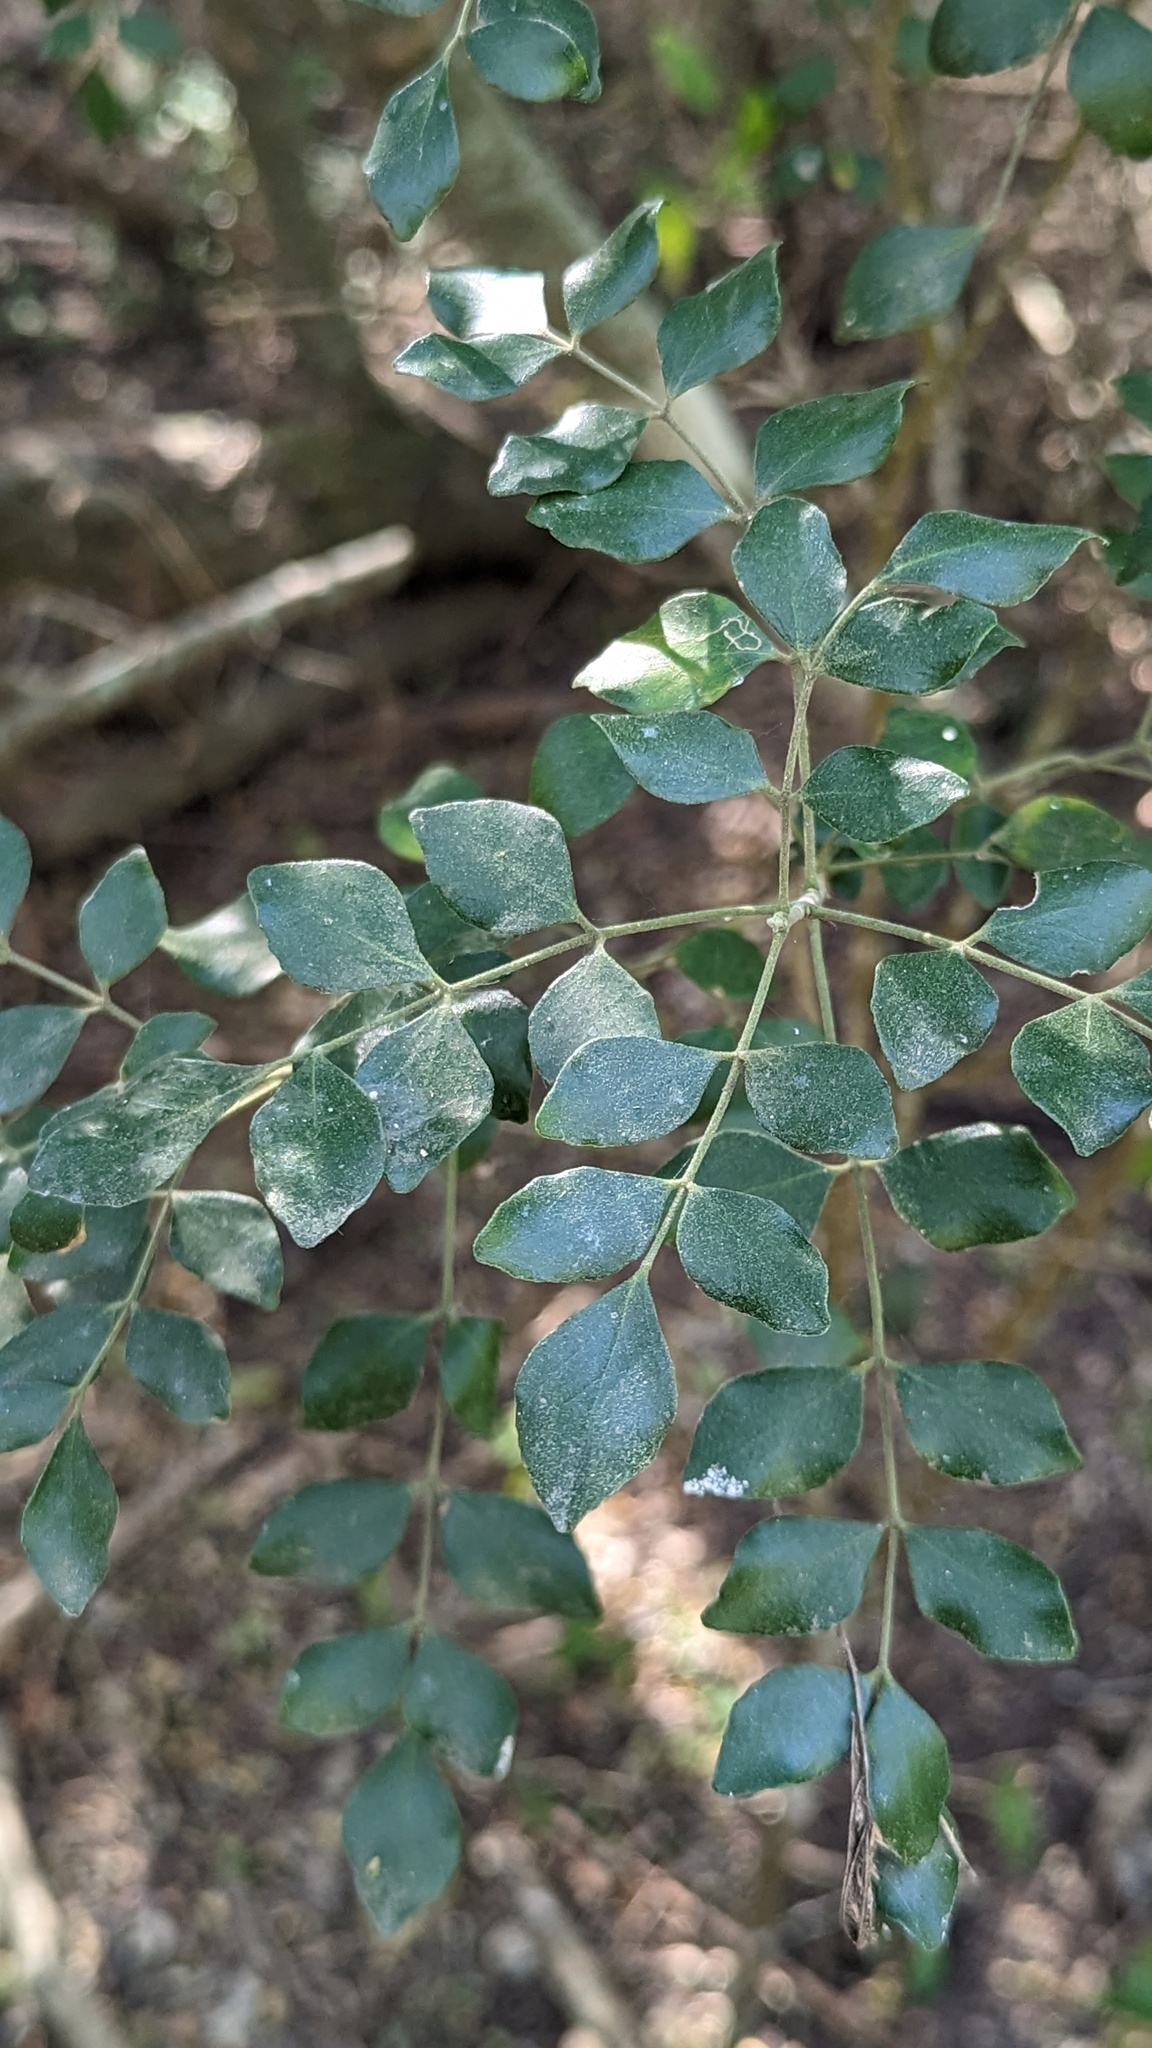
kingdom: Plantae
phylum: Tracheophyta
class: Magnoliopsida
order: Sapindales
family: Rutaceae
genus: Amyris
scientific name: Amyris madrensis
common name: Mountain torchwood
